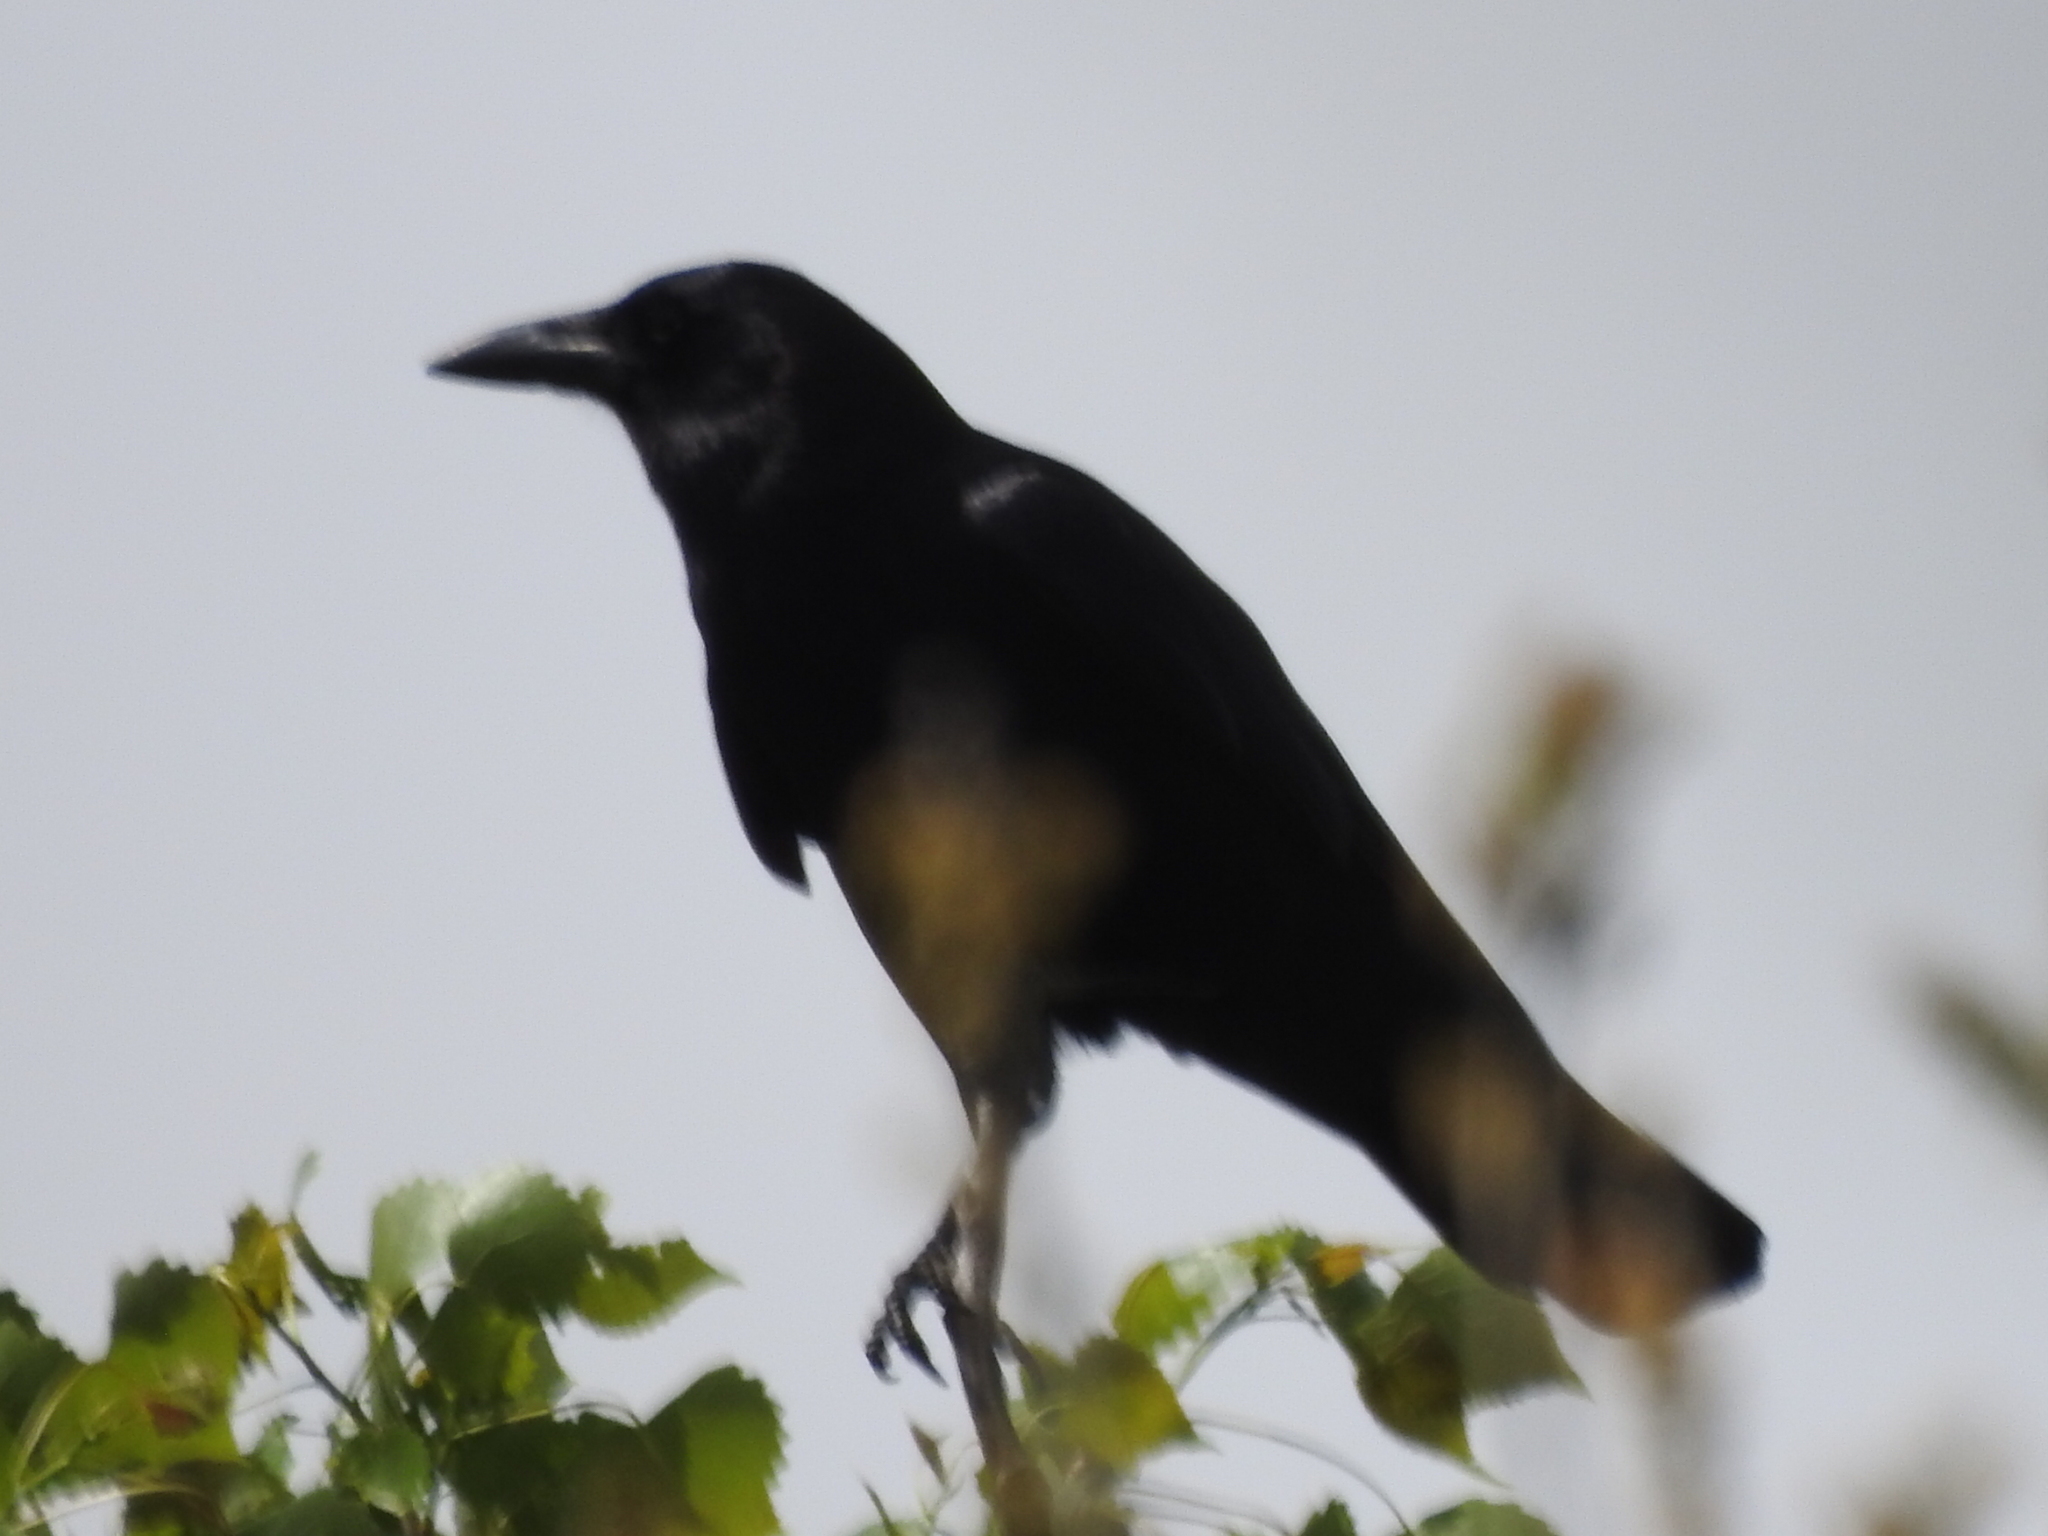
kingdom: Animalia
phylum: Chordata
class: Aves
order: Passeriformes
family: Corvidae
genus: Corvus
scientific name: Corvus brachyrhynchos
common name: American crow
